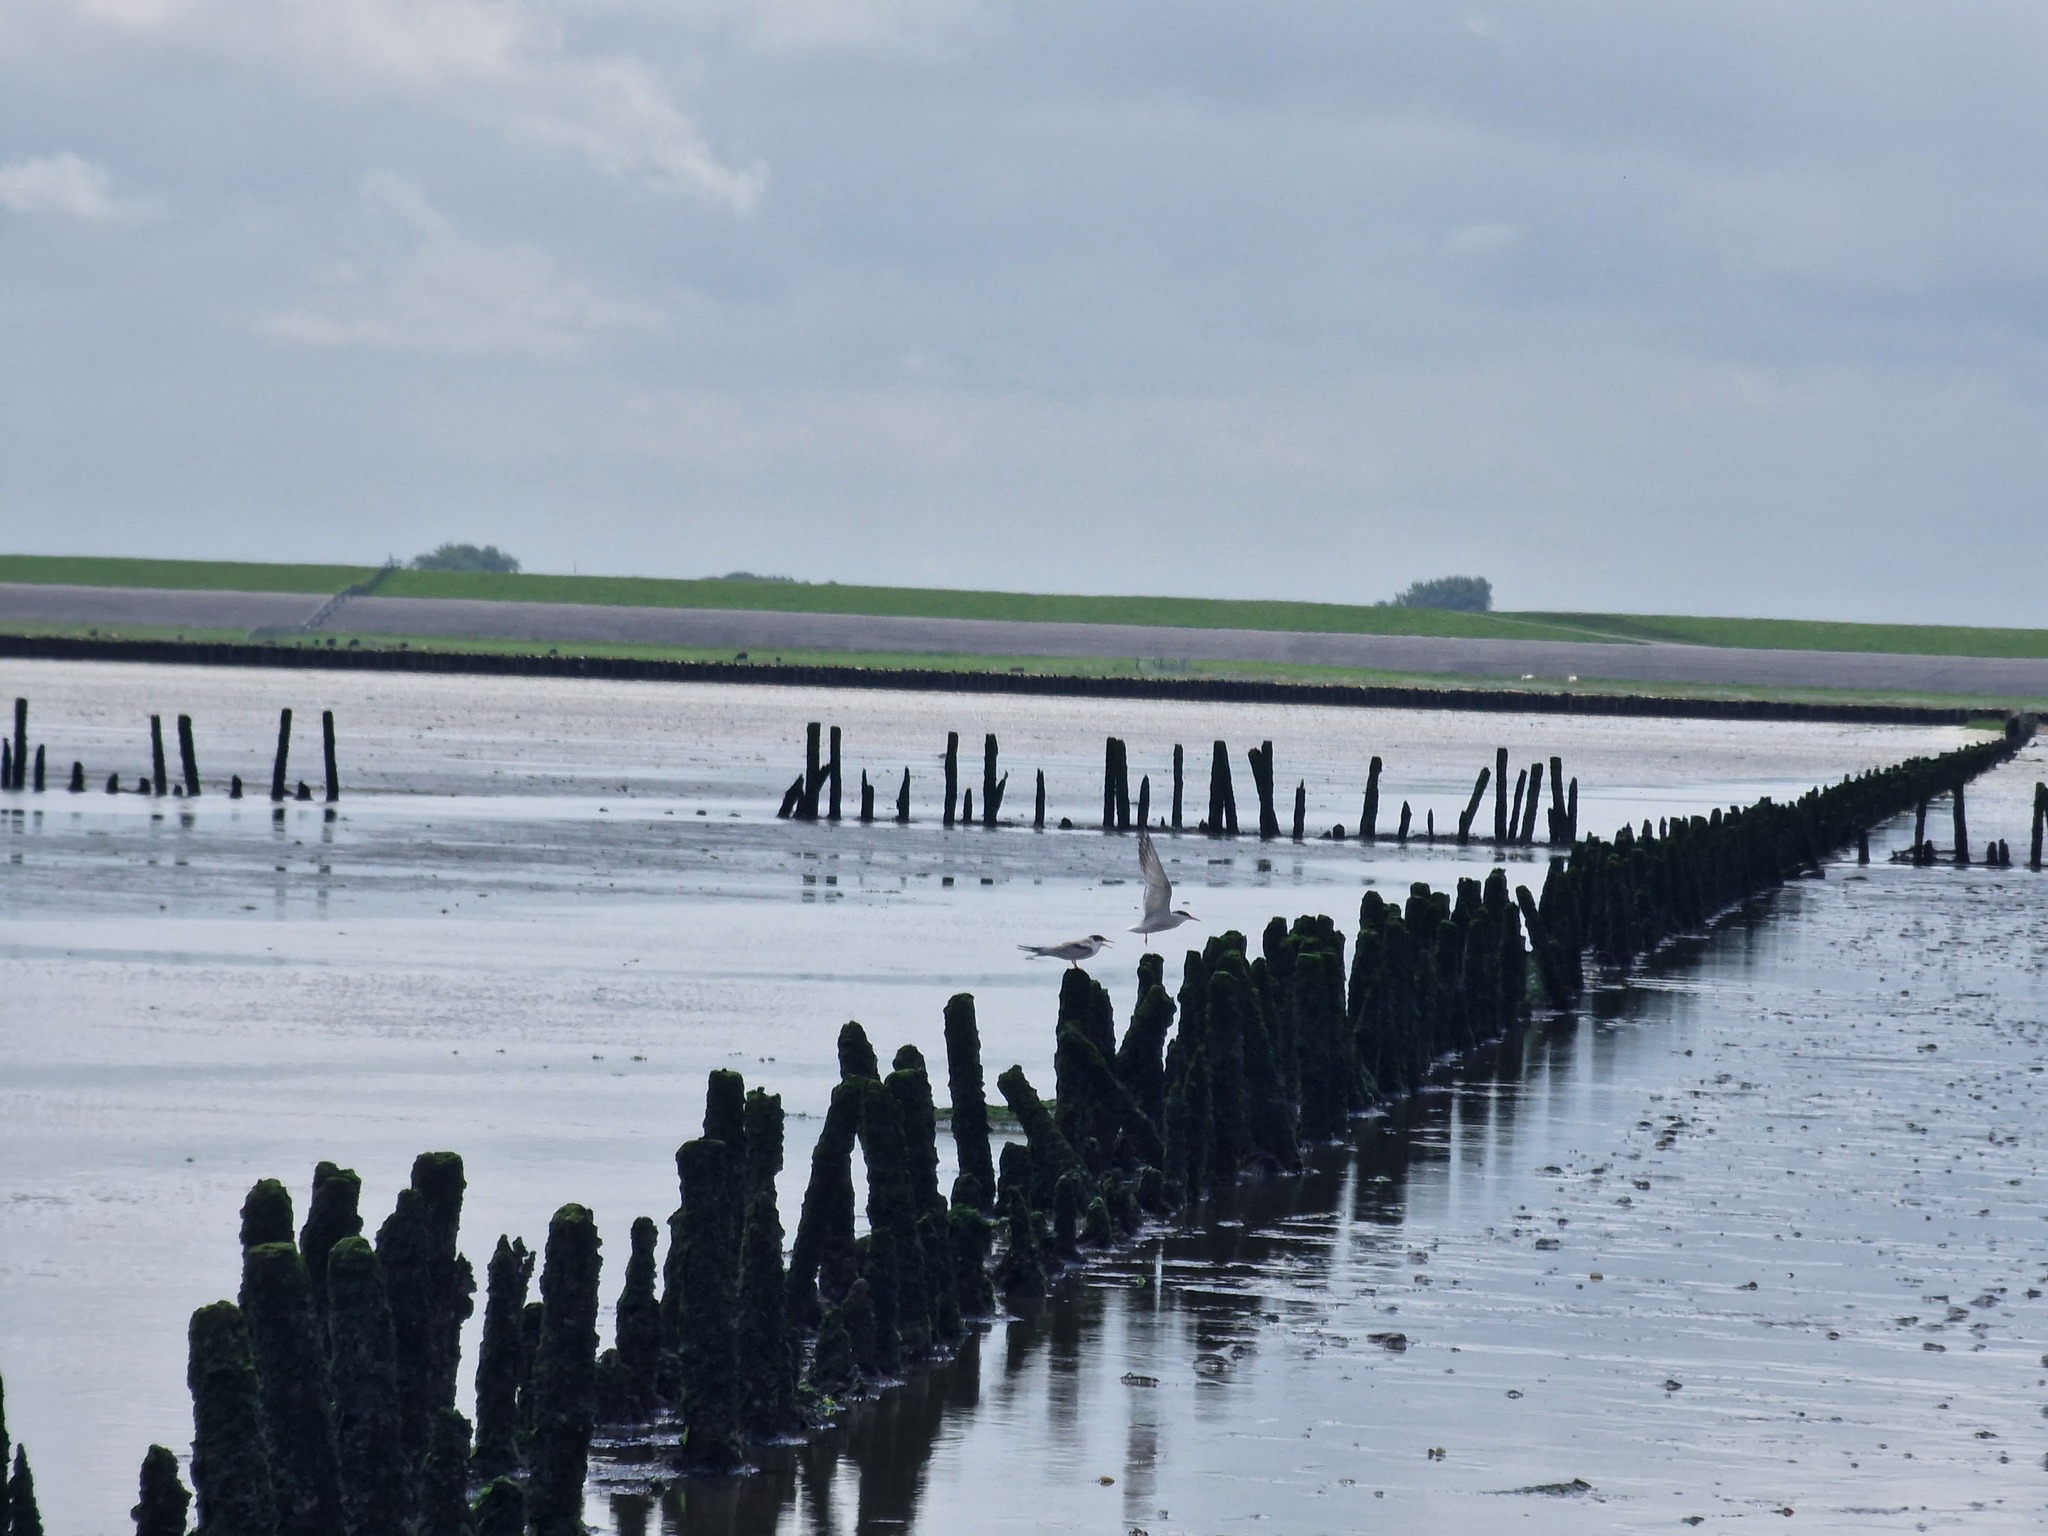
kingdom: Animalia
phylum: Chordata
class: Aves
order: Charadriiformes
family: Laridae
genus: Sterna
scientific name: Sterna hirundo
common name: Common tern
